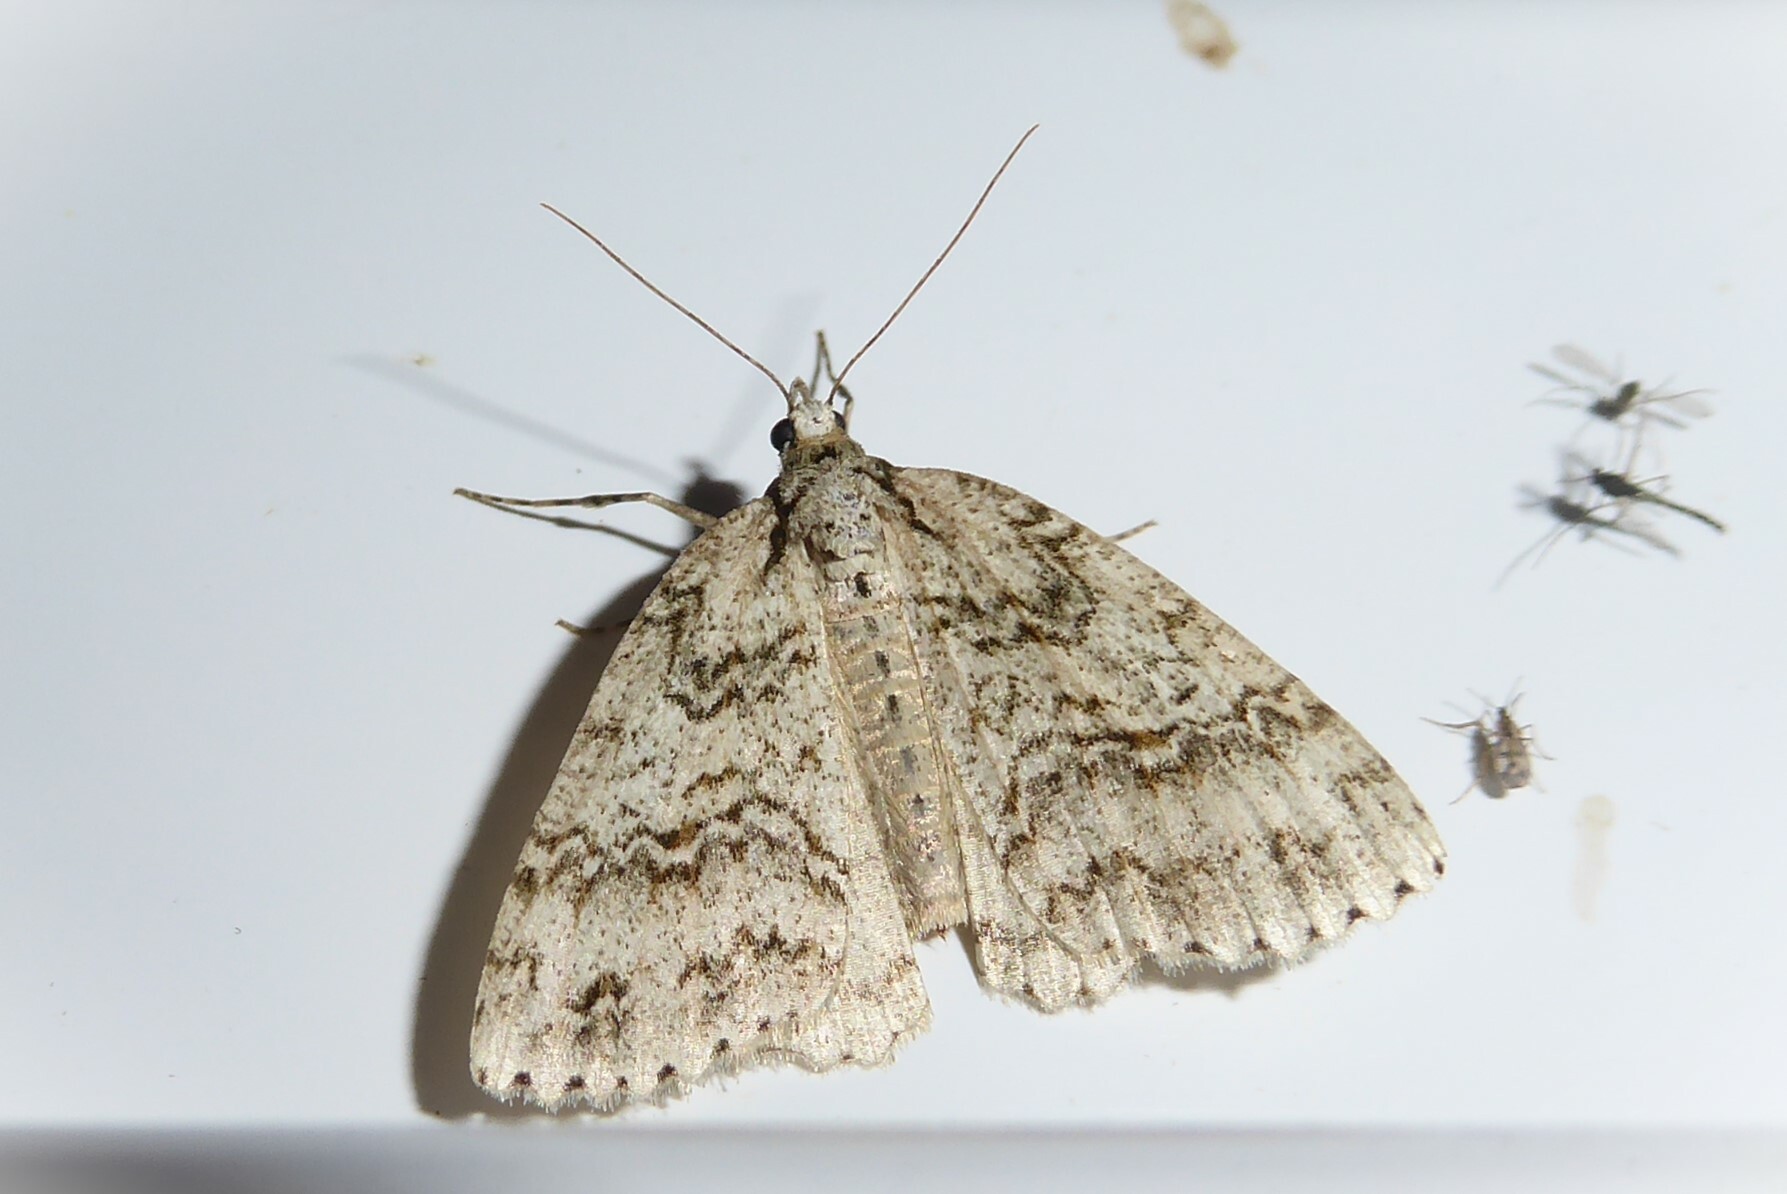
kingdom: Animalia
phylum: Arthropoda
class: Insecta
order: Lepidoptera
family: Geometridae
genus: Pseudocoremia
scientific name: Pseudocoremia rudisata
